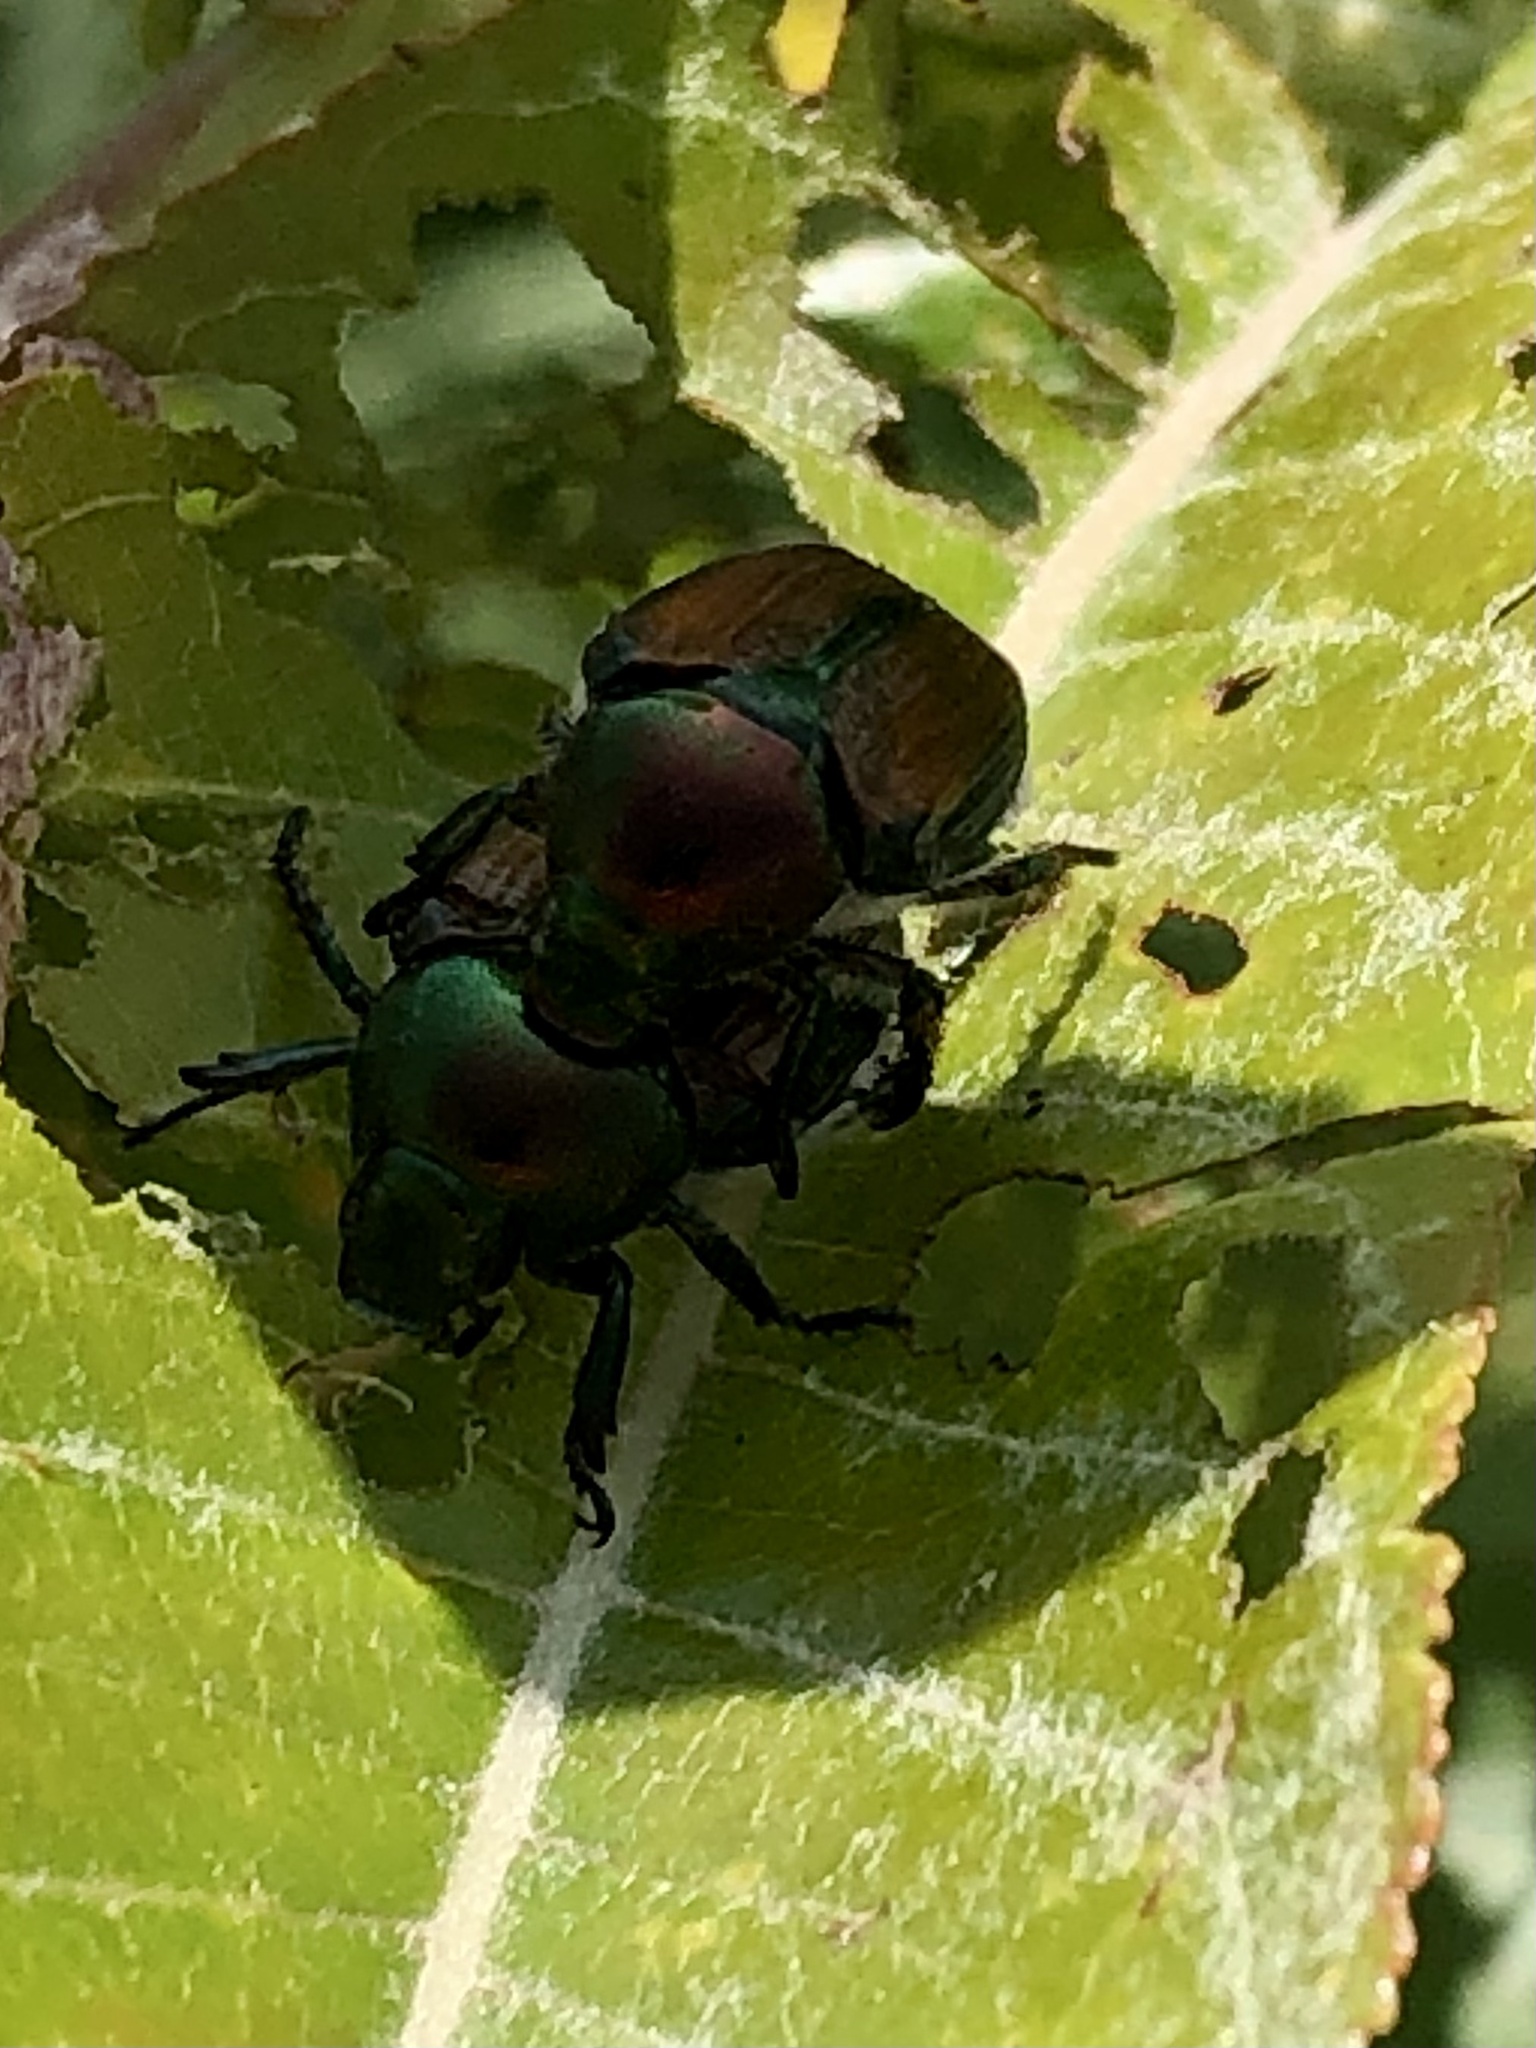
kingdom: Animalia
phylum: Arthropoda
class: Insecta
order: Coleoptera
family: Scarabaeidae
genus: Popillia
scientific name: Popillia japonica
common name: Japanese beetle
